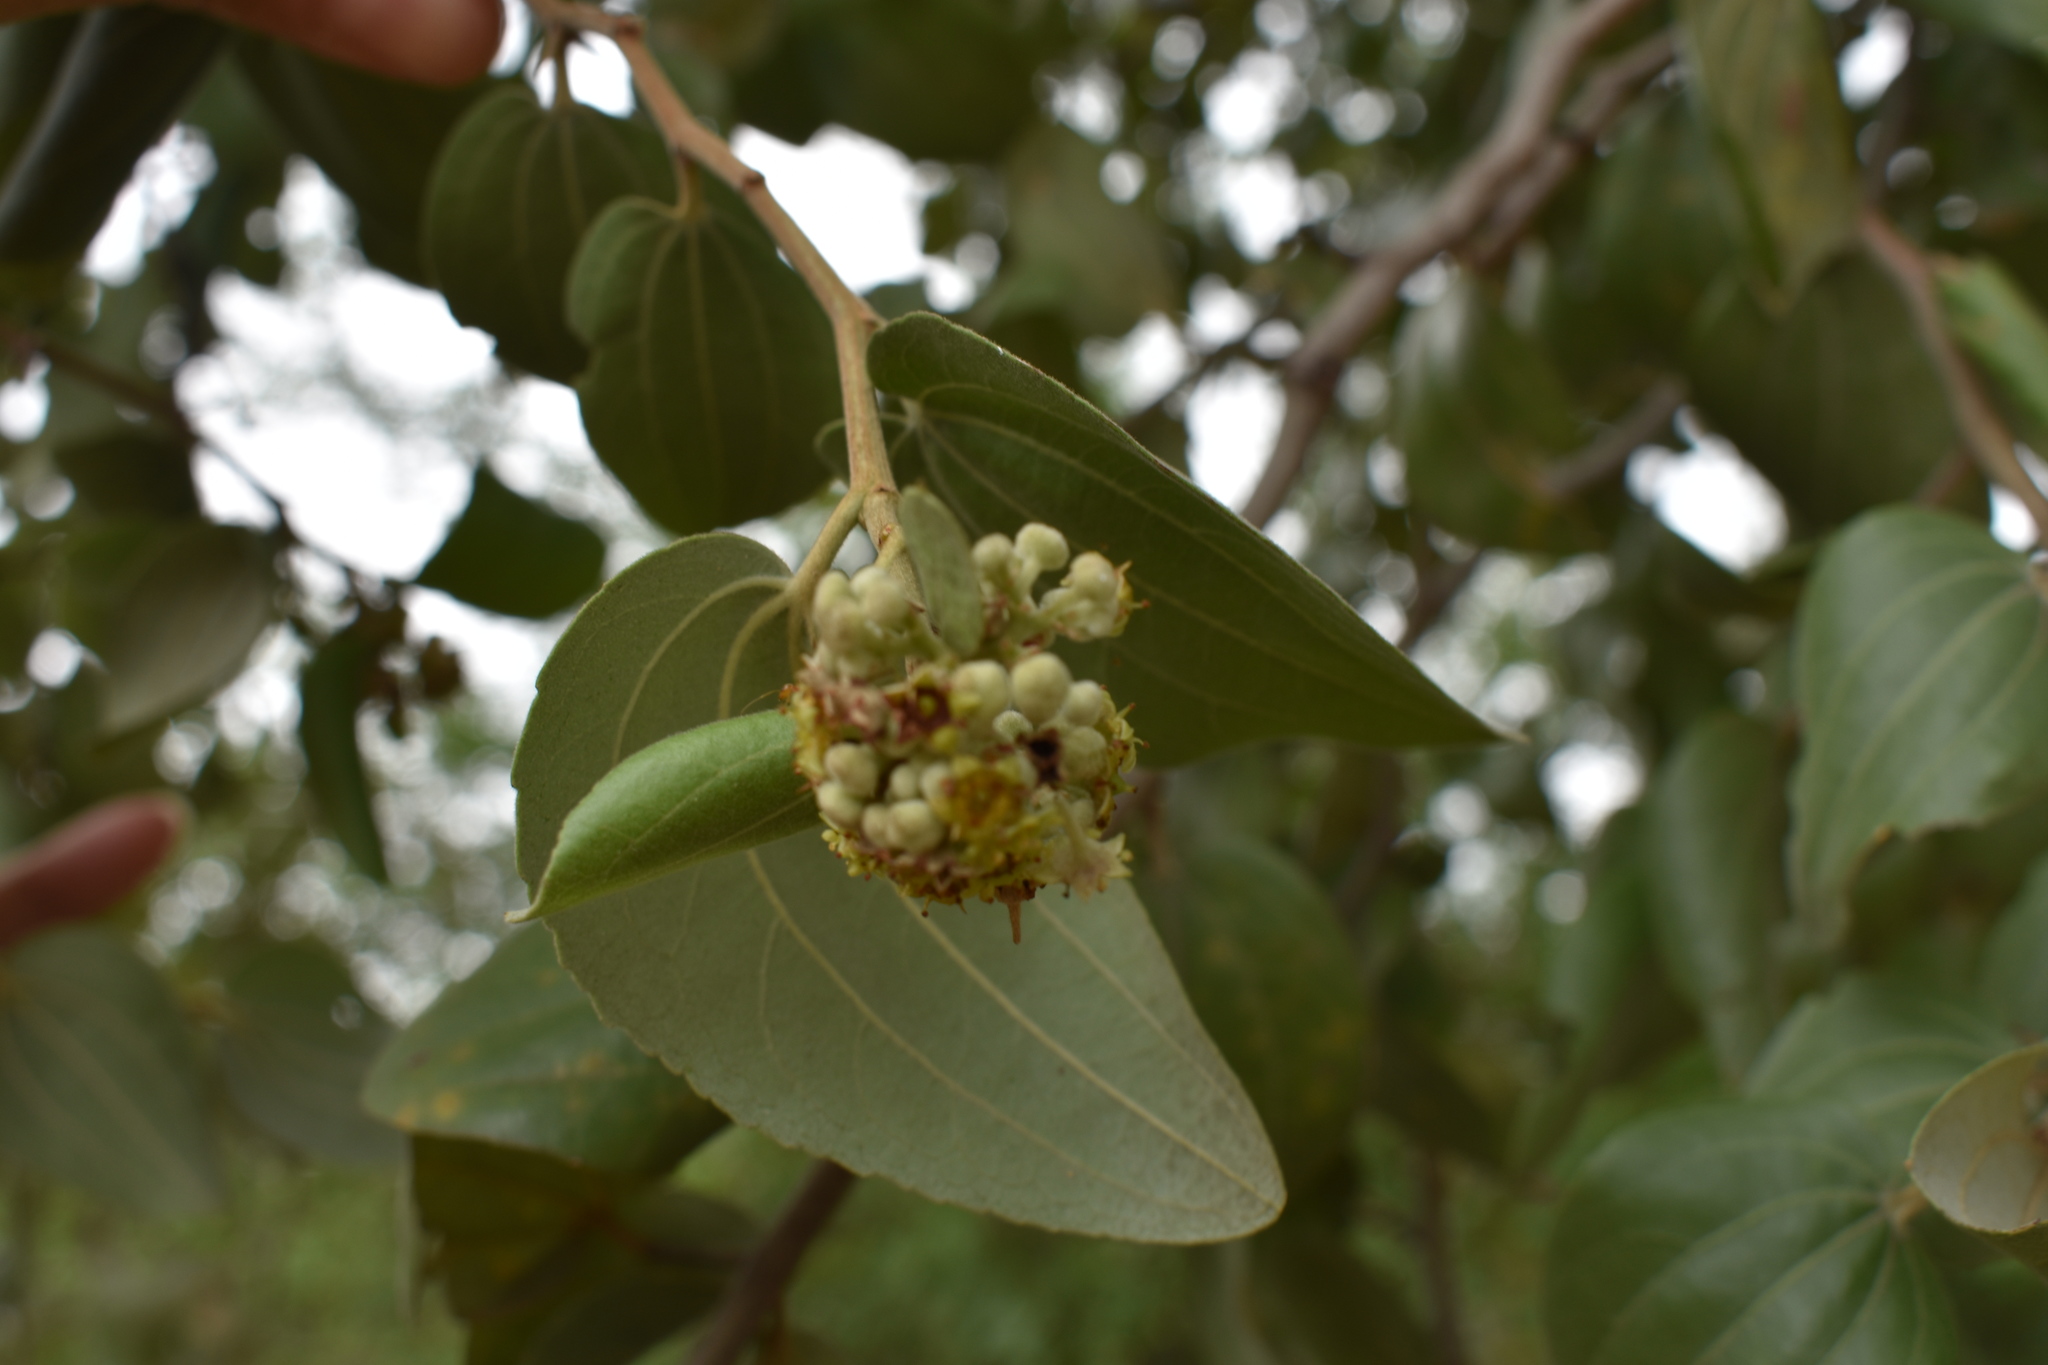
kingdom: Plantae
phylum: Tracheophyta
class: Magnoliopsida
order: Rosales
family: Rhamnaceae
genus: Sarcomphalus
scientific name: Sarcomphalus mistol
